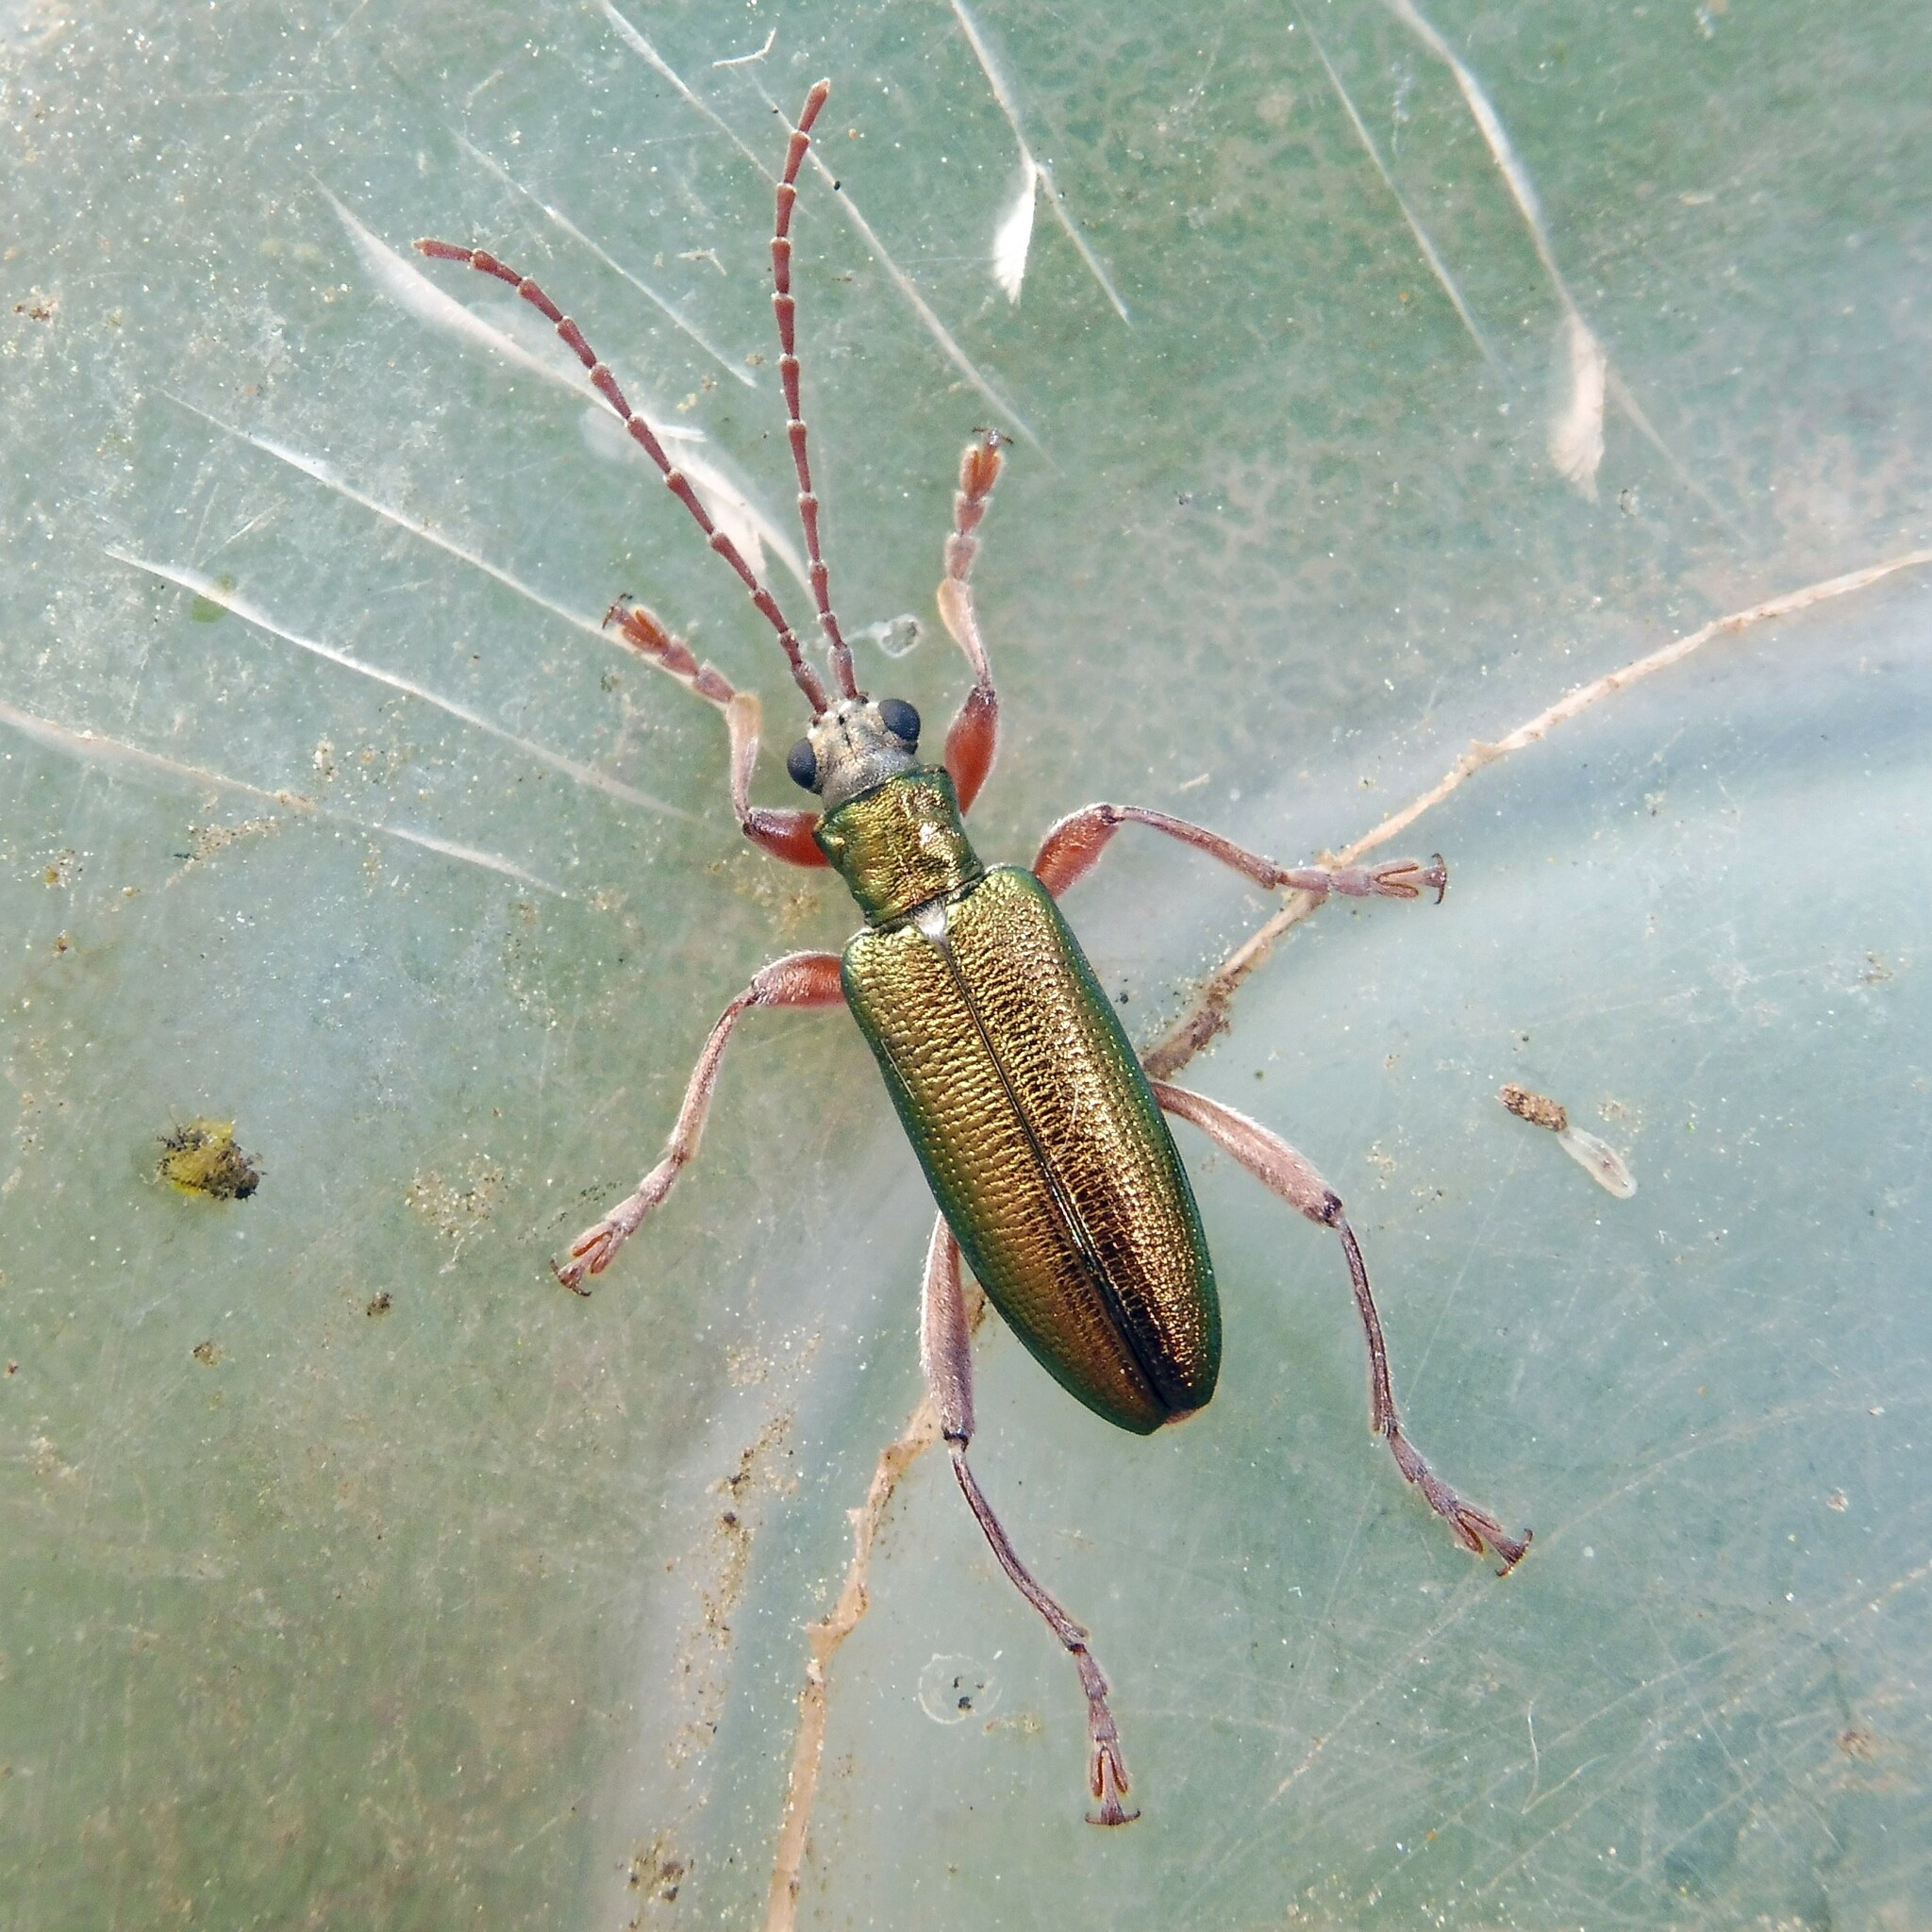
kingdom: Animalia
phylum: Arthropoda
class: Insecta
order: Coleoptera
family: Chrysomelidae
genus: Donacia
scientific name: Donacia clavipes
